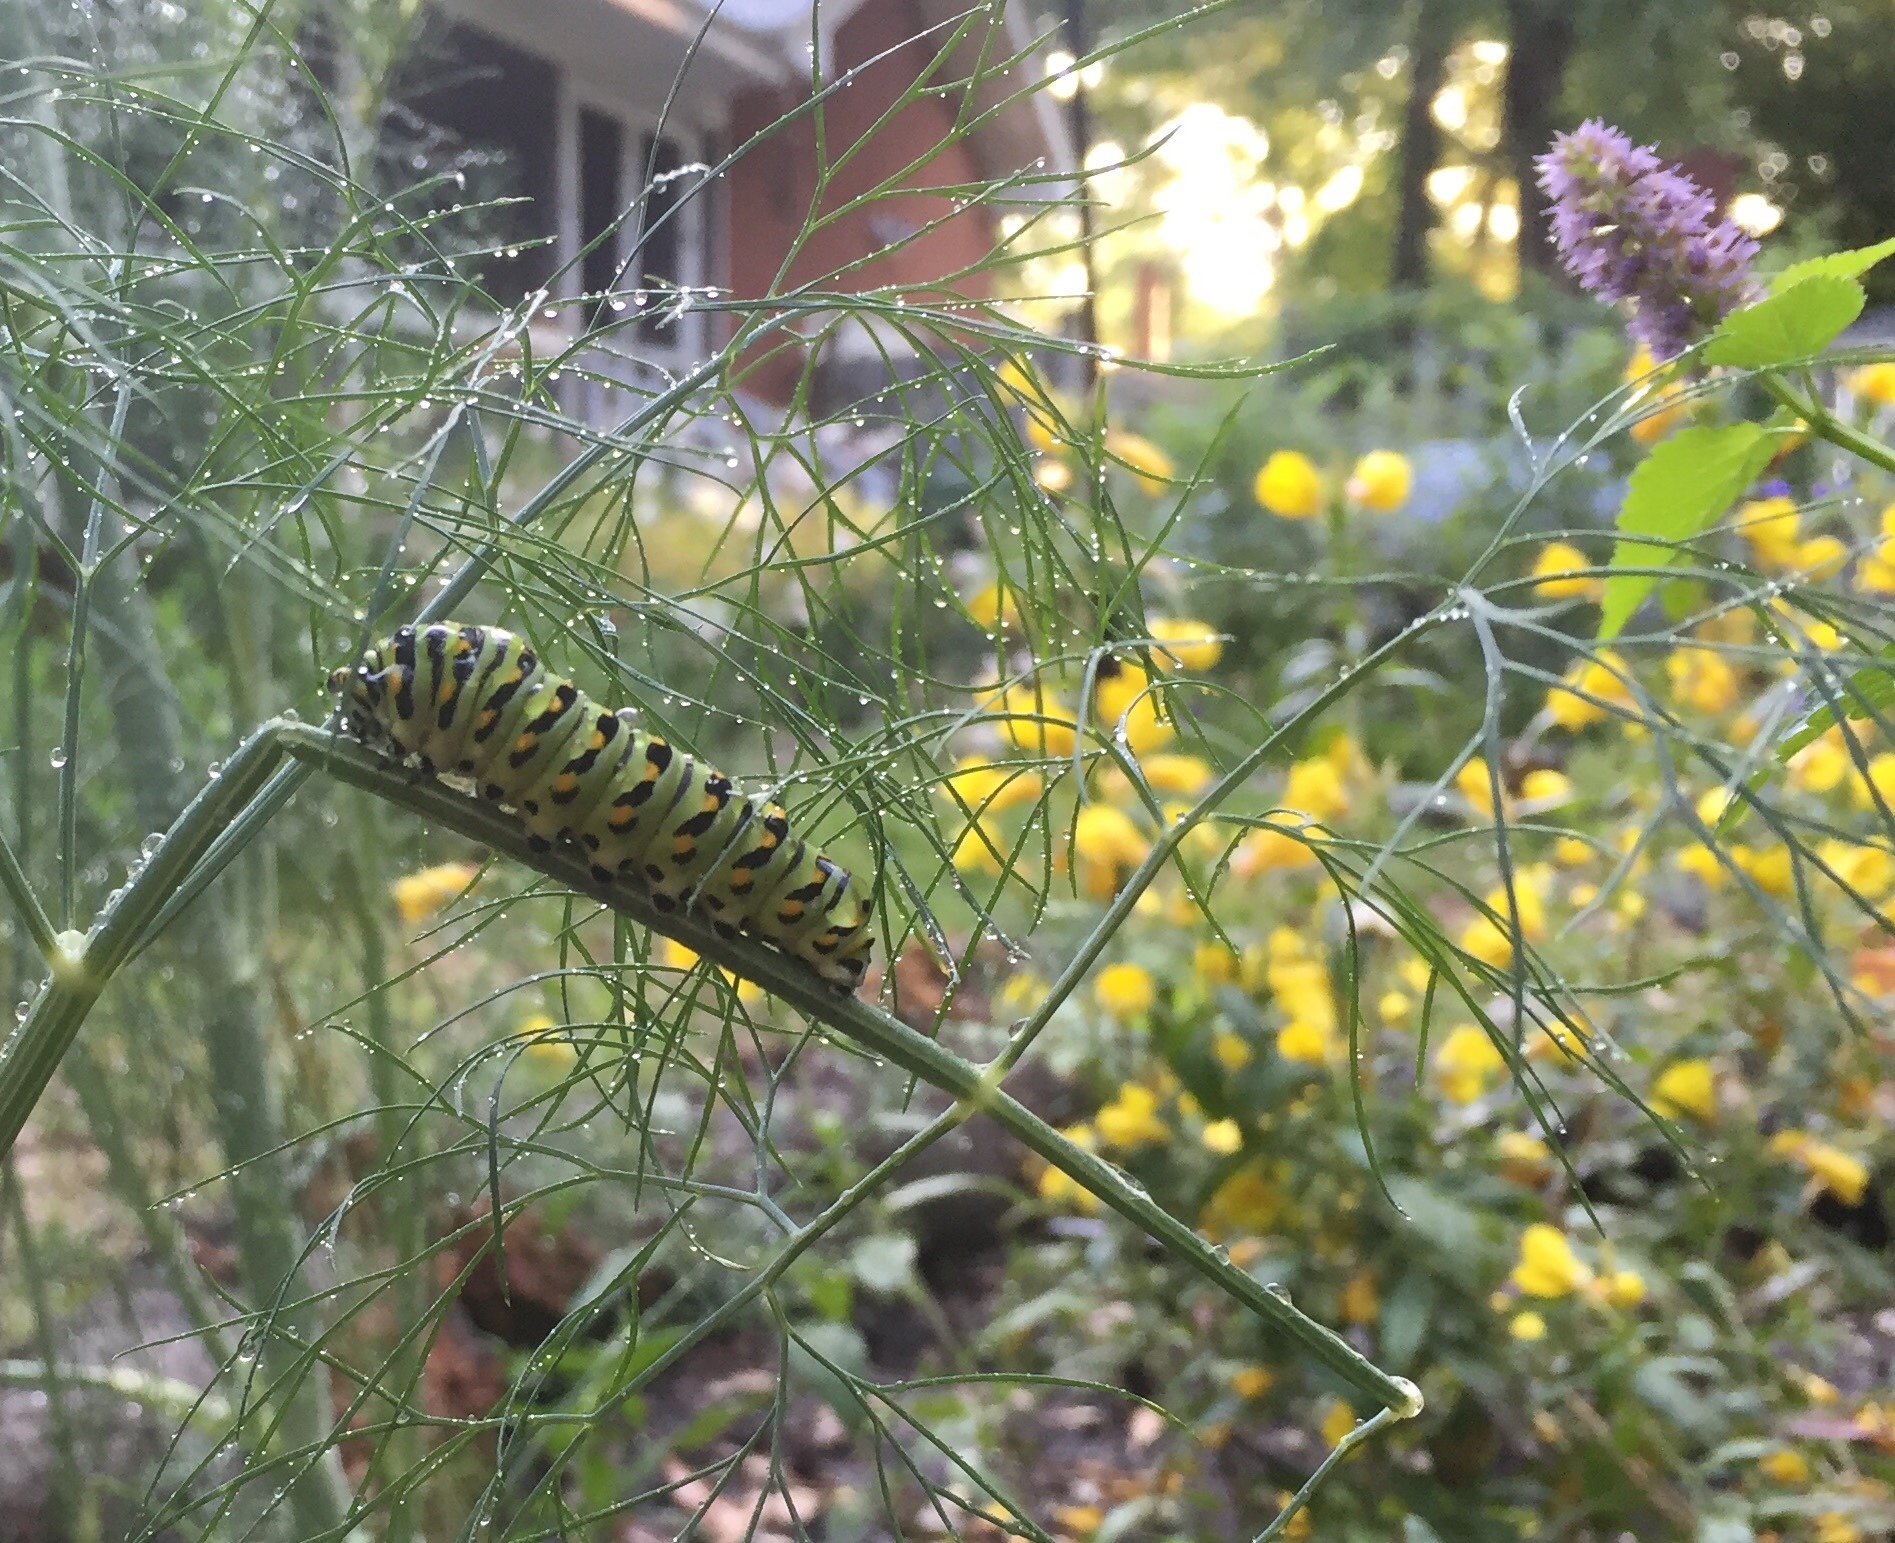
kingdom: Animalia
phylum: Arthropoda
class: Insecta
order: Lepidoptera
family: Papilionidae
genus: Papilio
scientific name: Papilio polyxenes
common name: Black swallowtail
